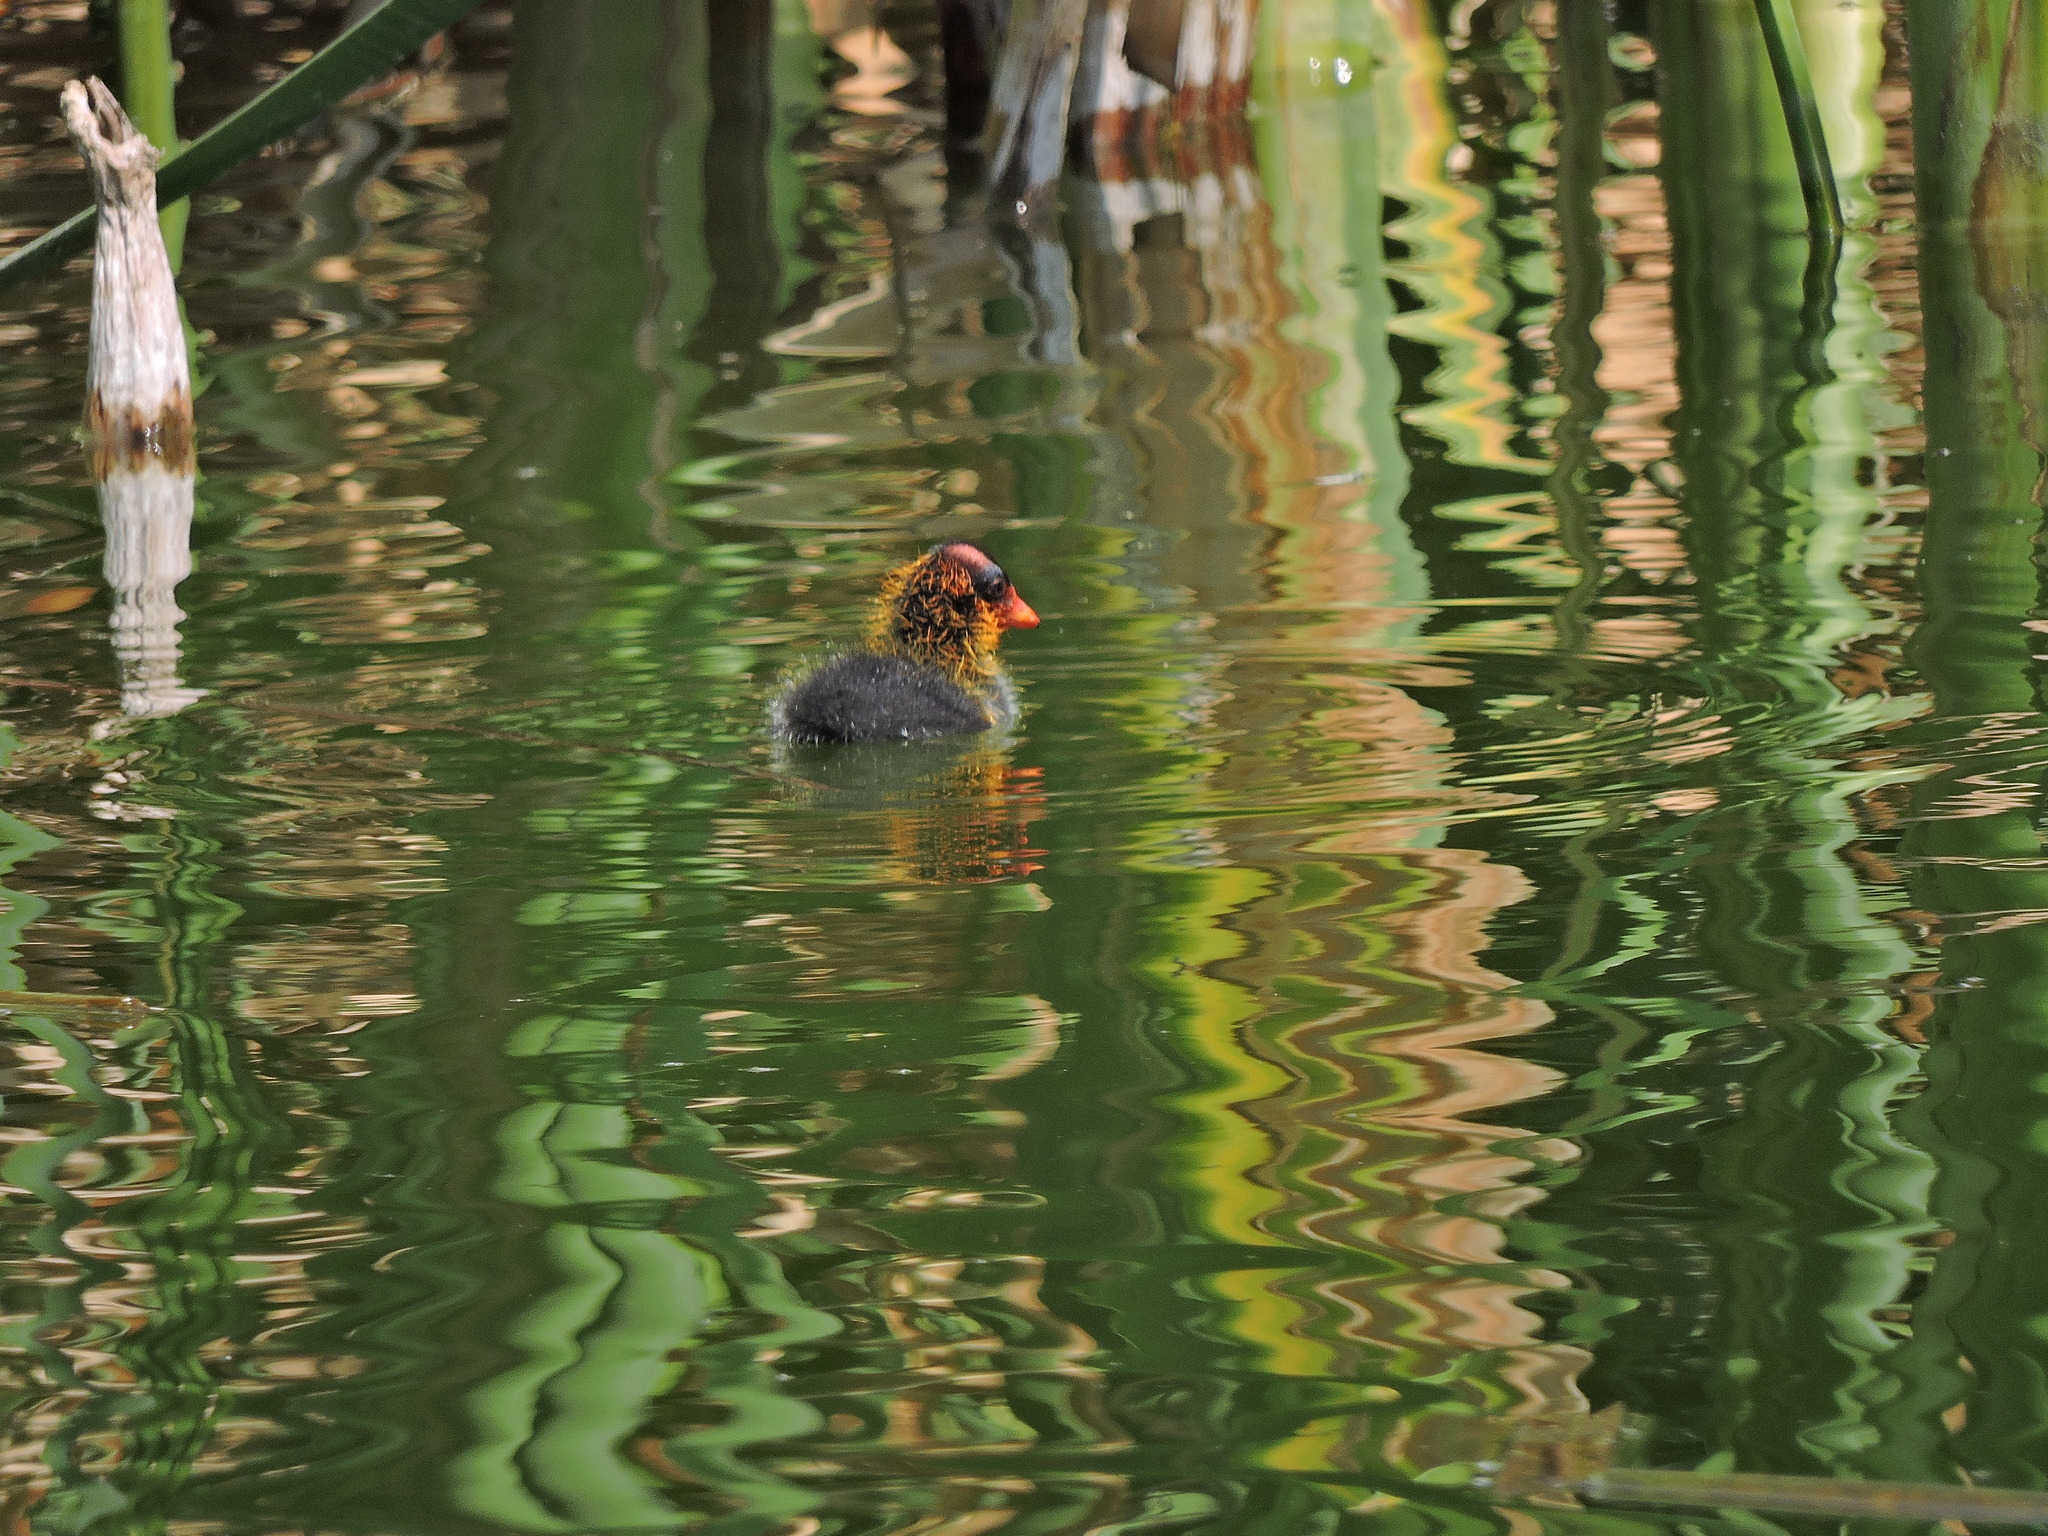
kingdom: Animalia
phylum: Chordata
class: Aves
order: Gruiformes
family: Rallidae
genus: Fulica
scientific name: Fulica americana
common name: American coot
